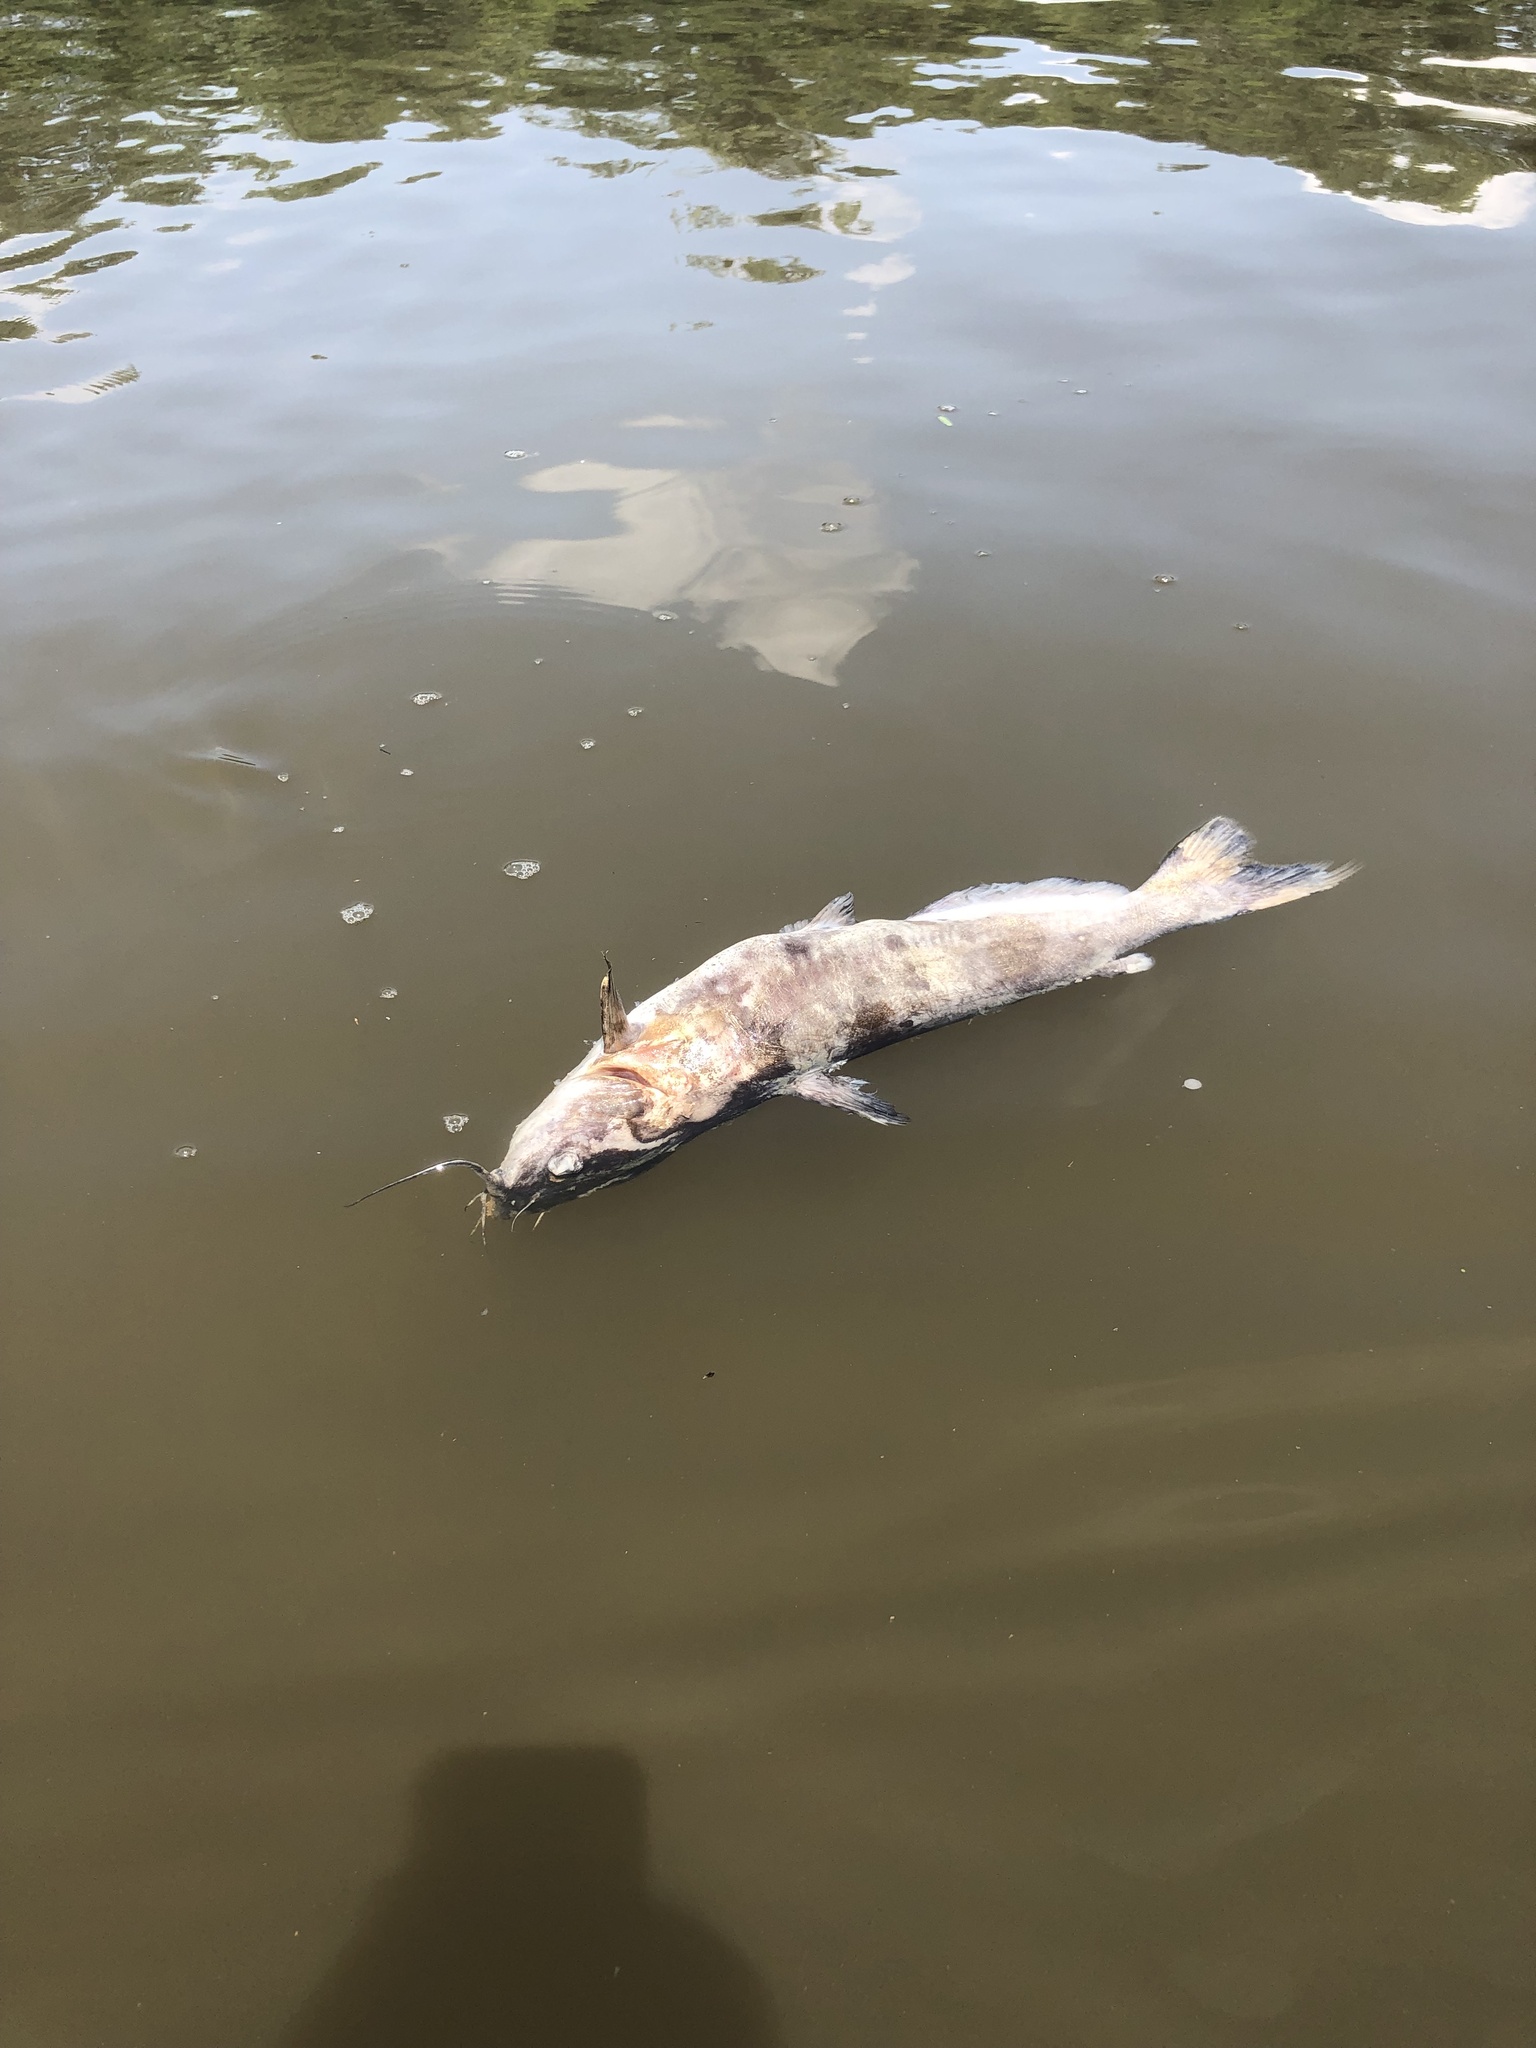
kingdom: Animalia
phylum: Chordata
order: Siluriformes
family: Ictaluridae
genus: Ictalurus
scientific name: Ictalurus punctatus
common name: Channel catfish
